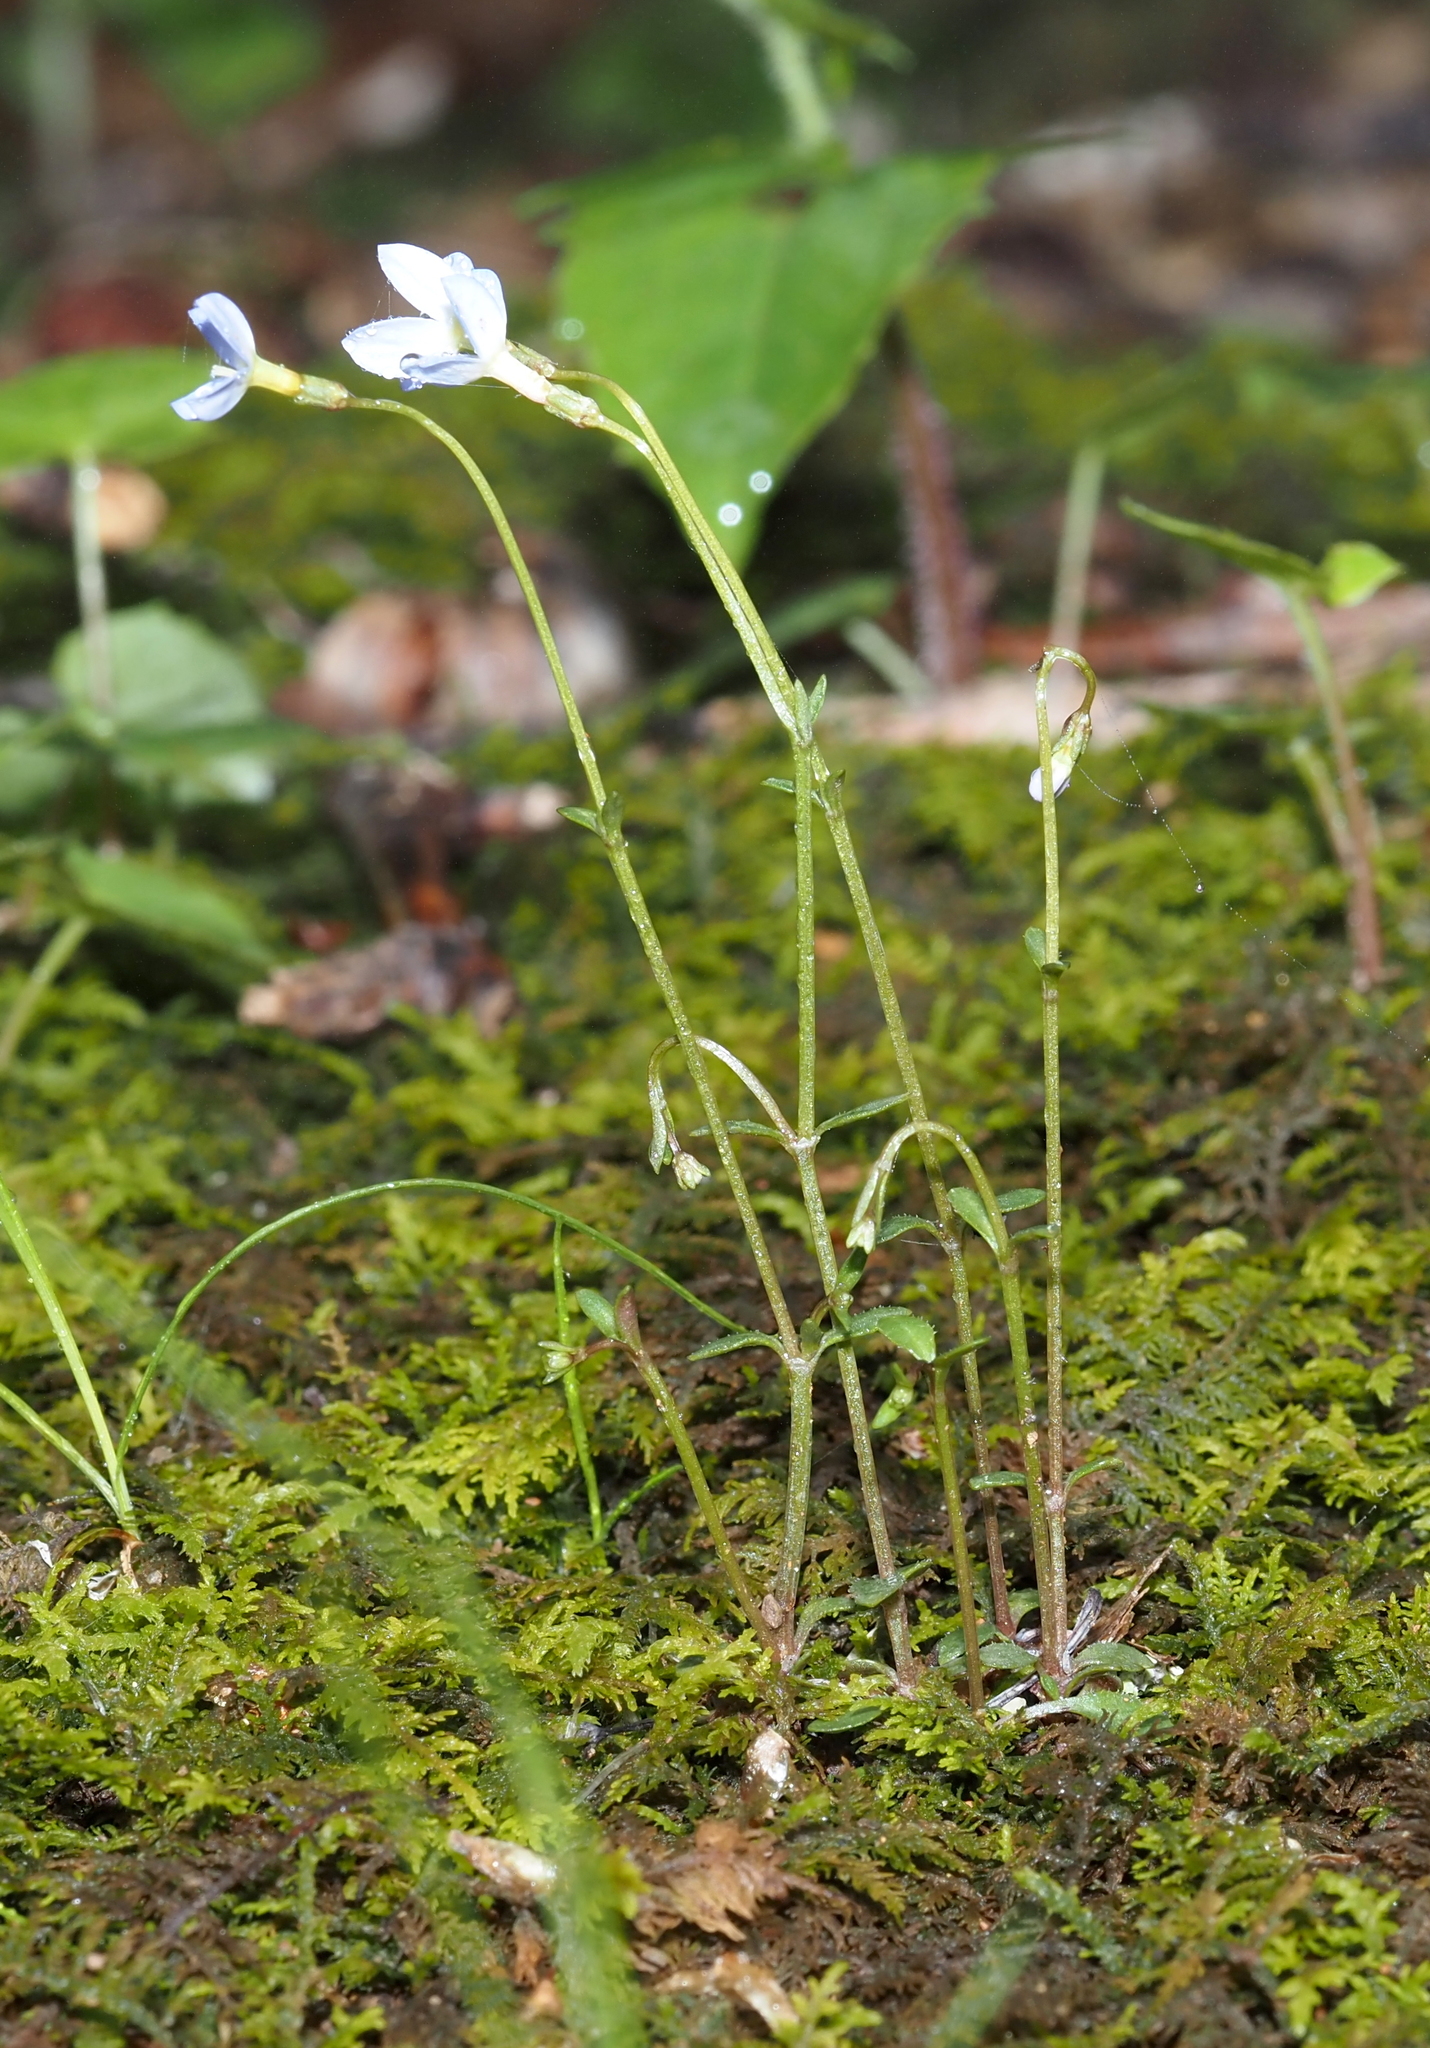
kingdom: Plantae
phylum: Tracheophyta
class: Magnoliopsida
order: Gentianales
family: Rubiaceae
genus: Houstonia
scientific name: Houstonia caerulea
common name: Bluets
